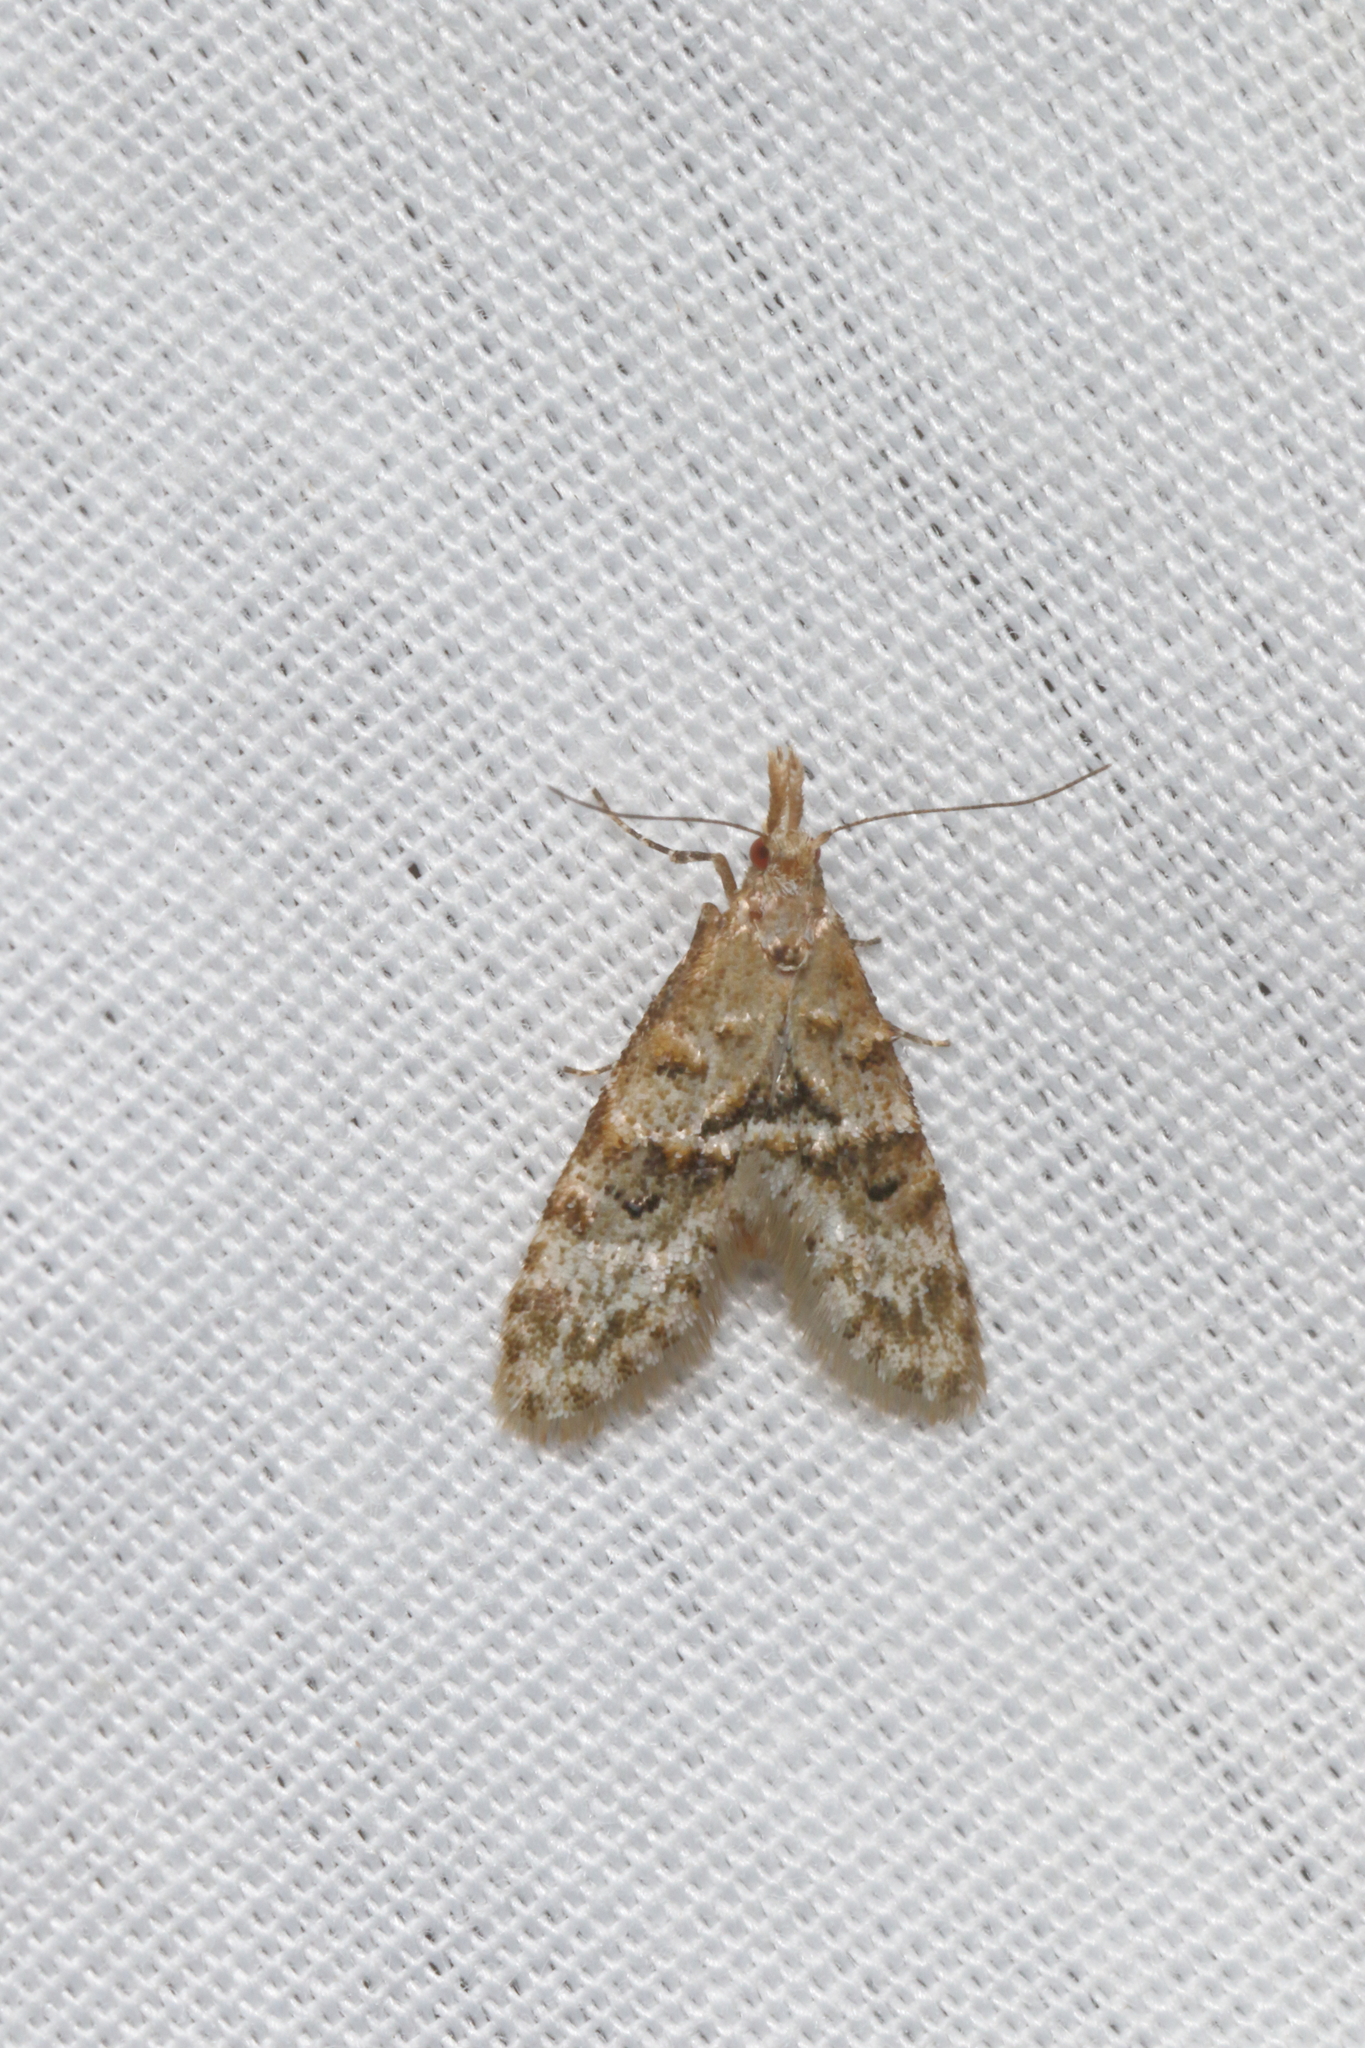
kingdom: Animalia
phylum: Arthropoda
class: Insecta
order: Lepidoptera
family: Copromorphidae
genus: Isonomeutis
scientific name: Isonomeutis restincta
